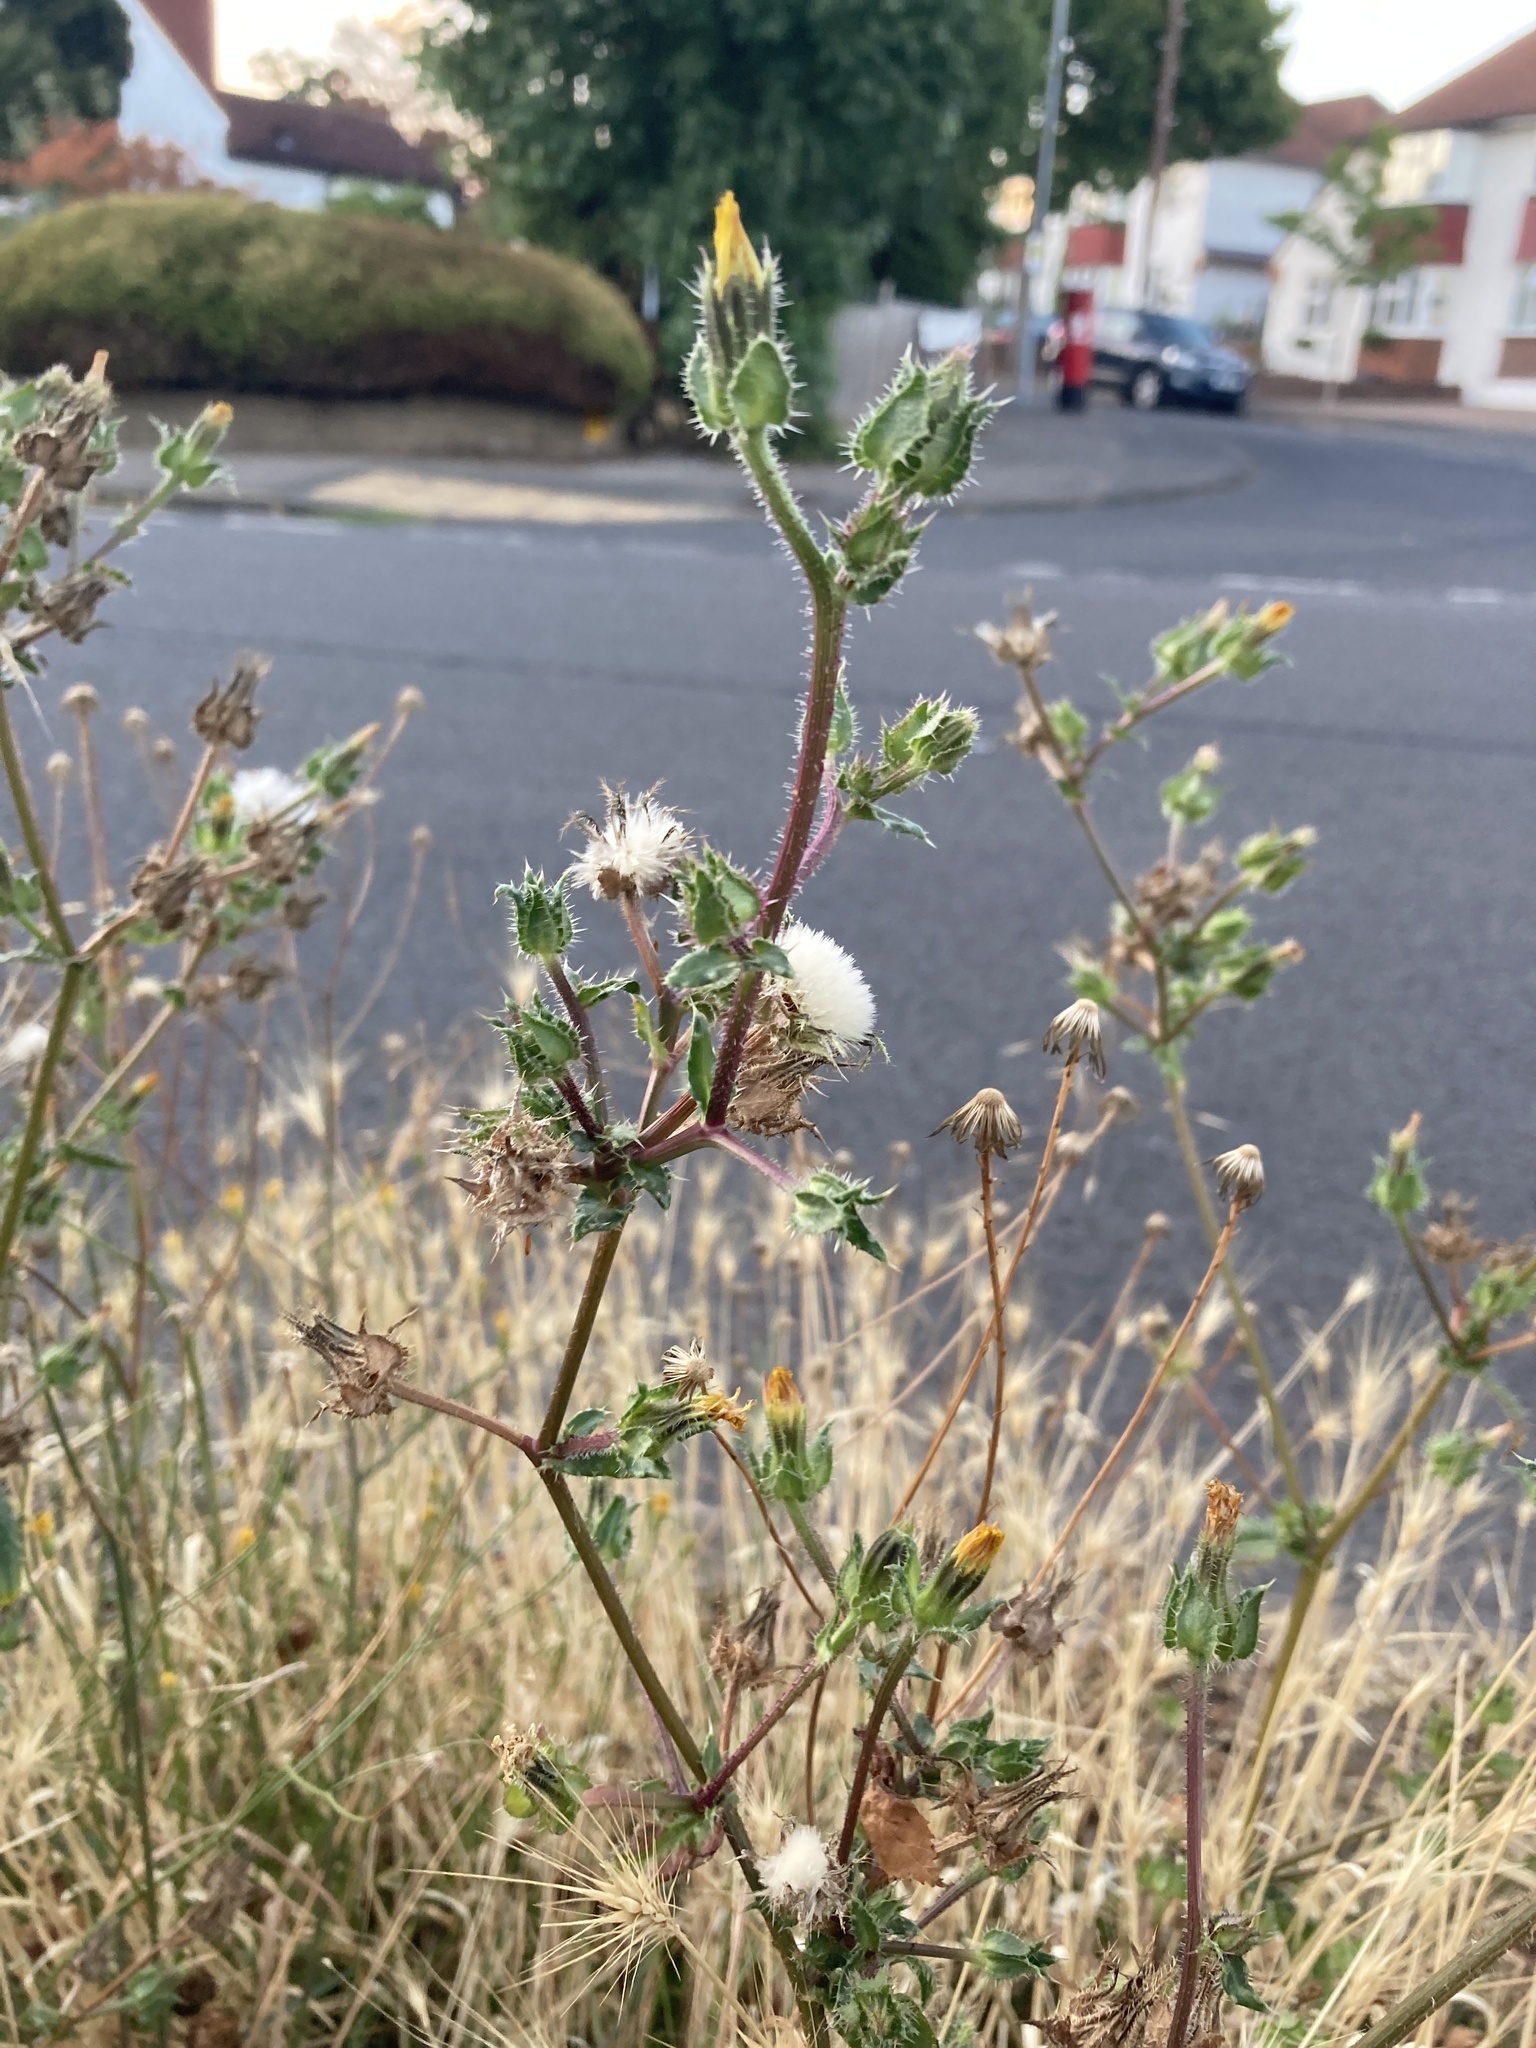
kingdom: Plantae
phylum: Tracheophyta
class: Magnoliopsida
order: Asterales
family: Asteraceae
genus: Helminthotheca
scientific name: Helminthotheca echioides
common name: Ox-tongue
